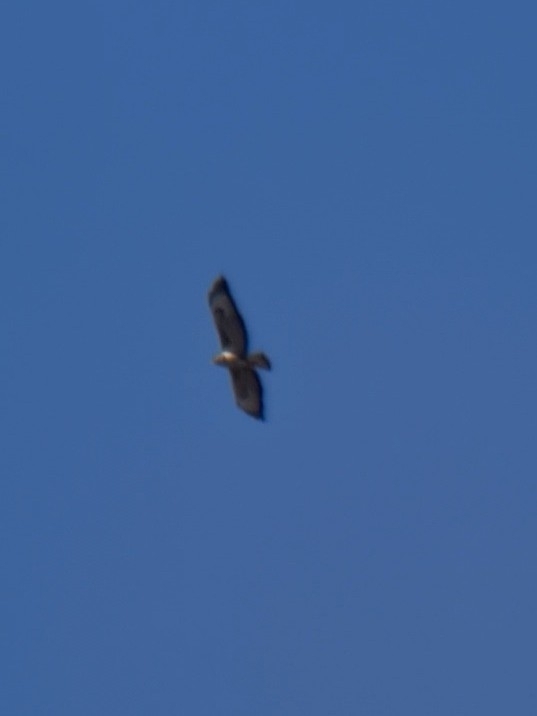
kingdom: Animalia
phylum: Chordata
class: Aves
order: Accipitriformes
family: Accipitridae
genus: Buteo
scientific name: Buteo buteo
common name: Common buzzard
